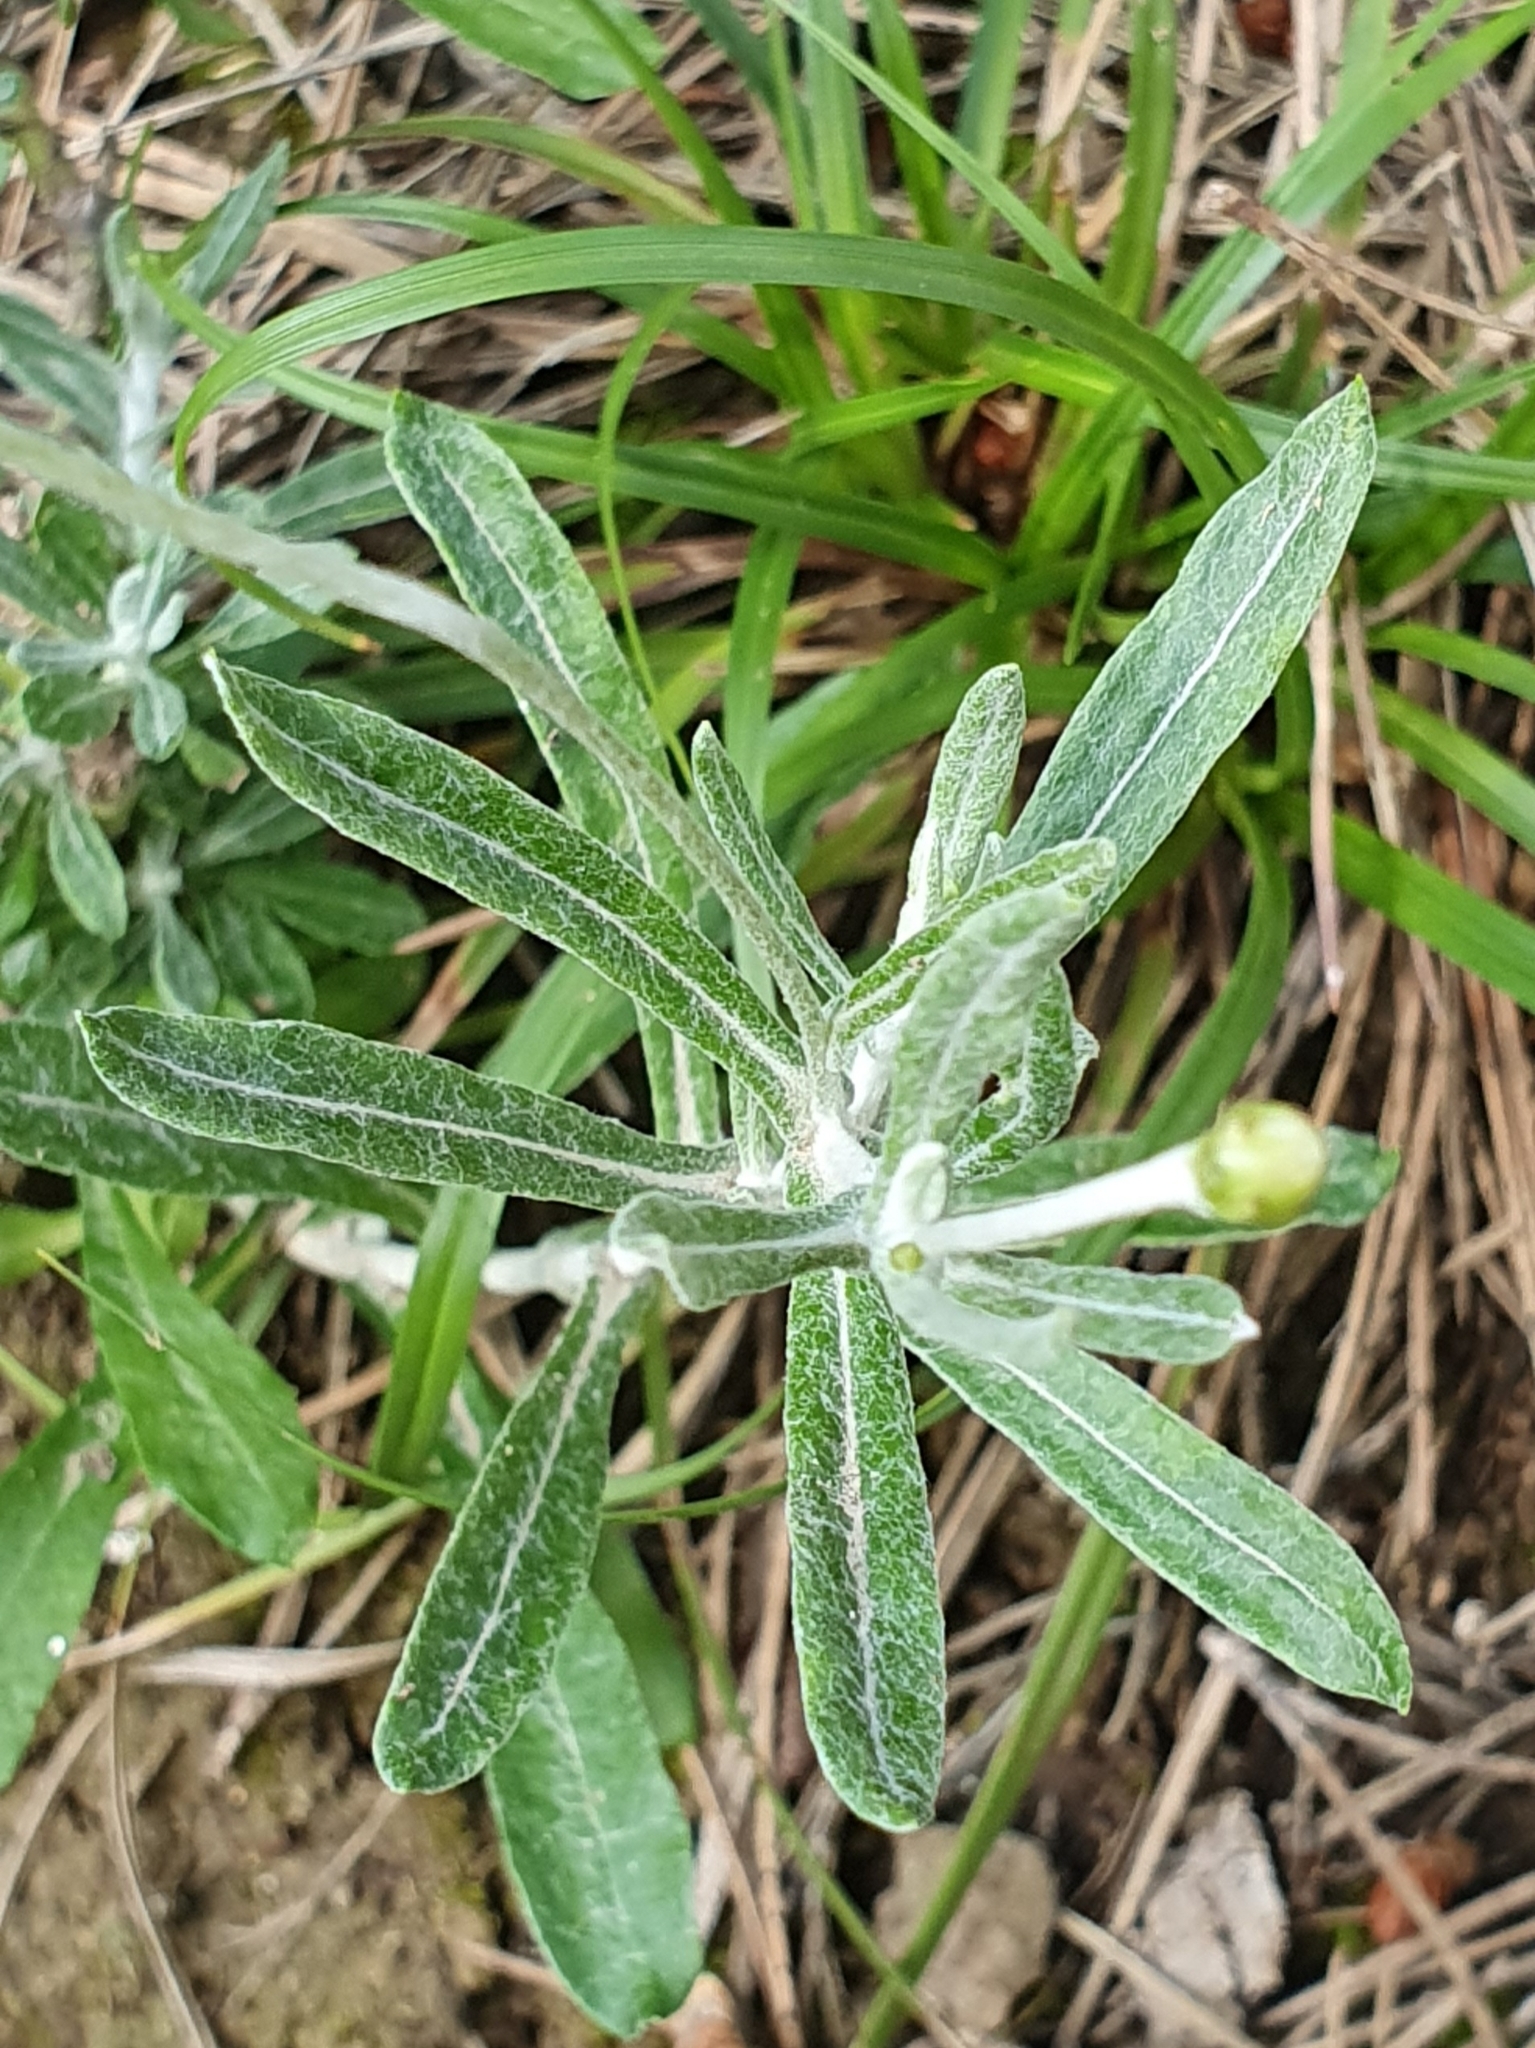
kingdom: Plantae
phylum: Tracheophyta
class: Magnoliopsida
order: Asterales
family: Asteraceae
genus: Phagnalon
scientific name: Phagnalon rupestre
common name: Rock phagnalon
